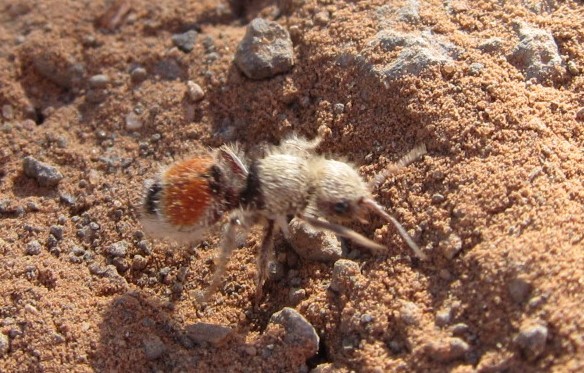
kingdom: Animalia
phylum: Arthropoda
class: Insecta
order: Hymenoptera
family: Mutillidae
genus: Dasymutilla
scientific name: Dasymutilla foxi
